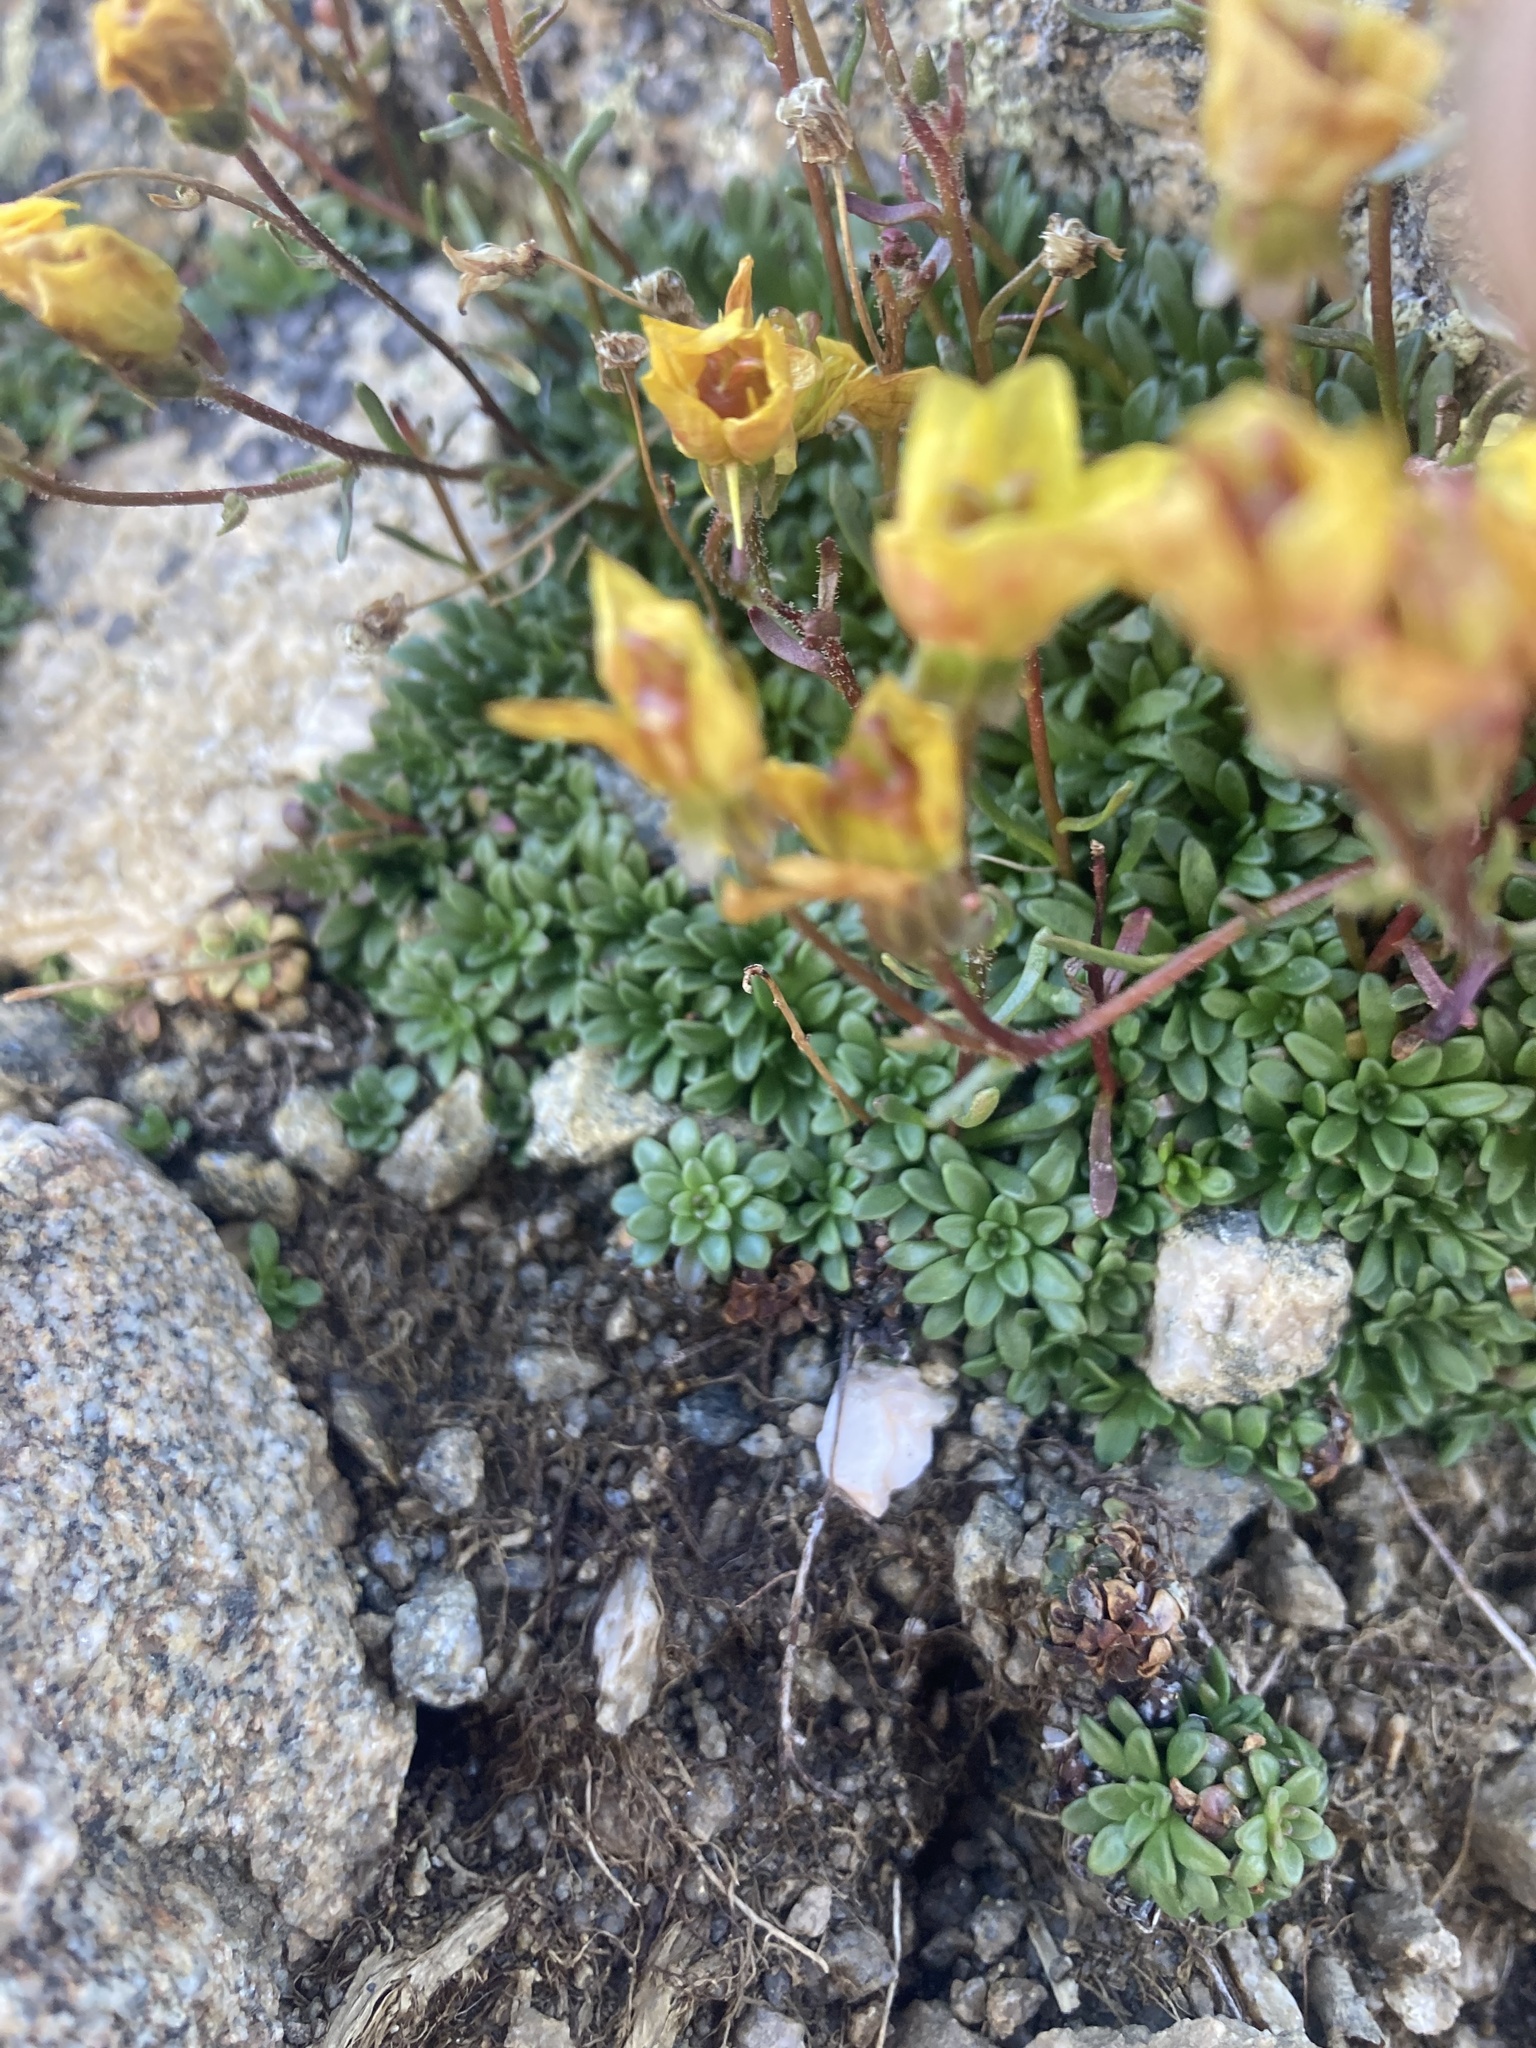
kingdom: Plantae
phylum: Tracheophyta
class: Magnoliopsida
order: Saxifragales
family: Saxifragaceae
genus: Saxifraga
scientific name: Saxifraga chrysantha
